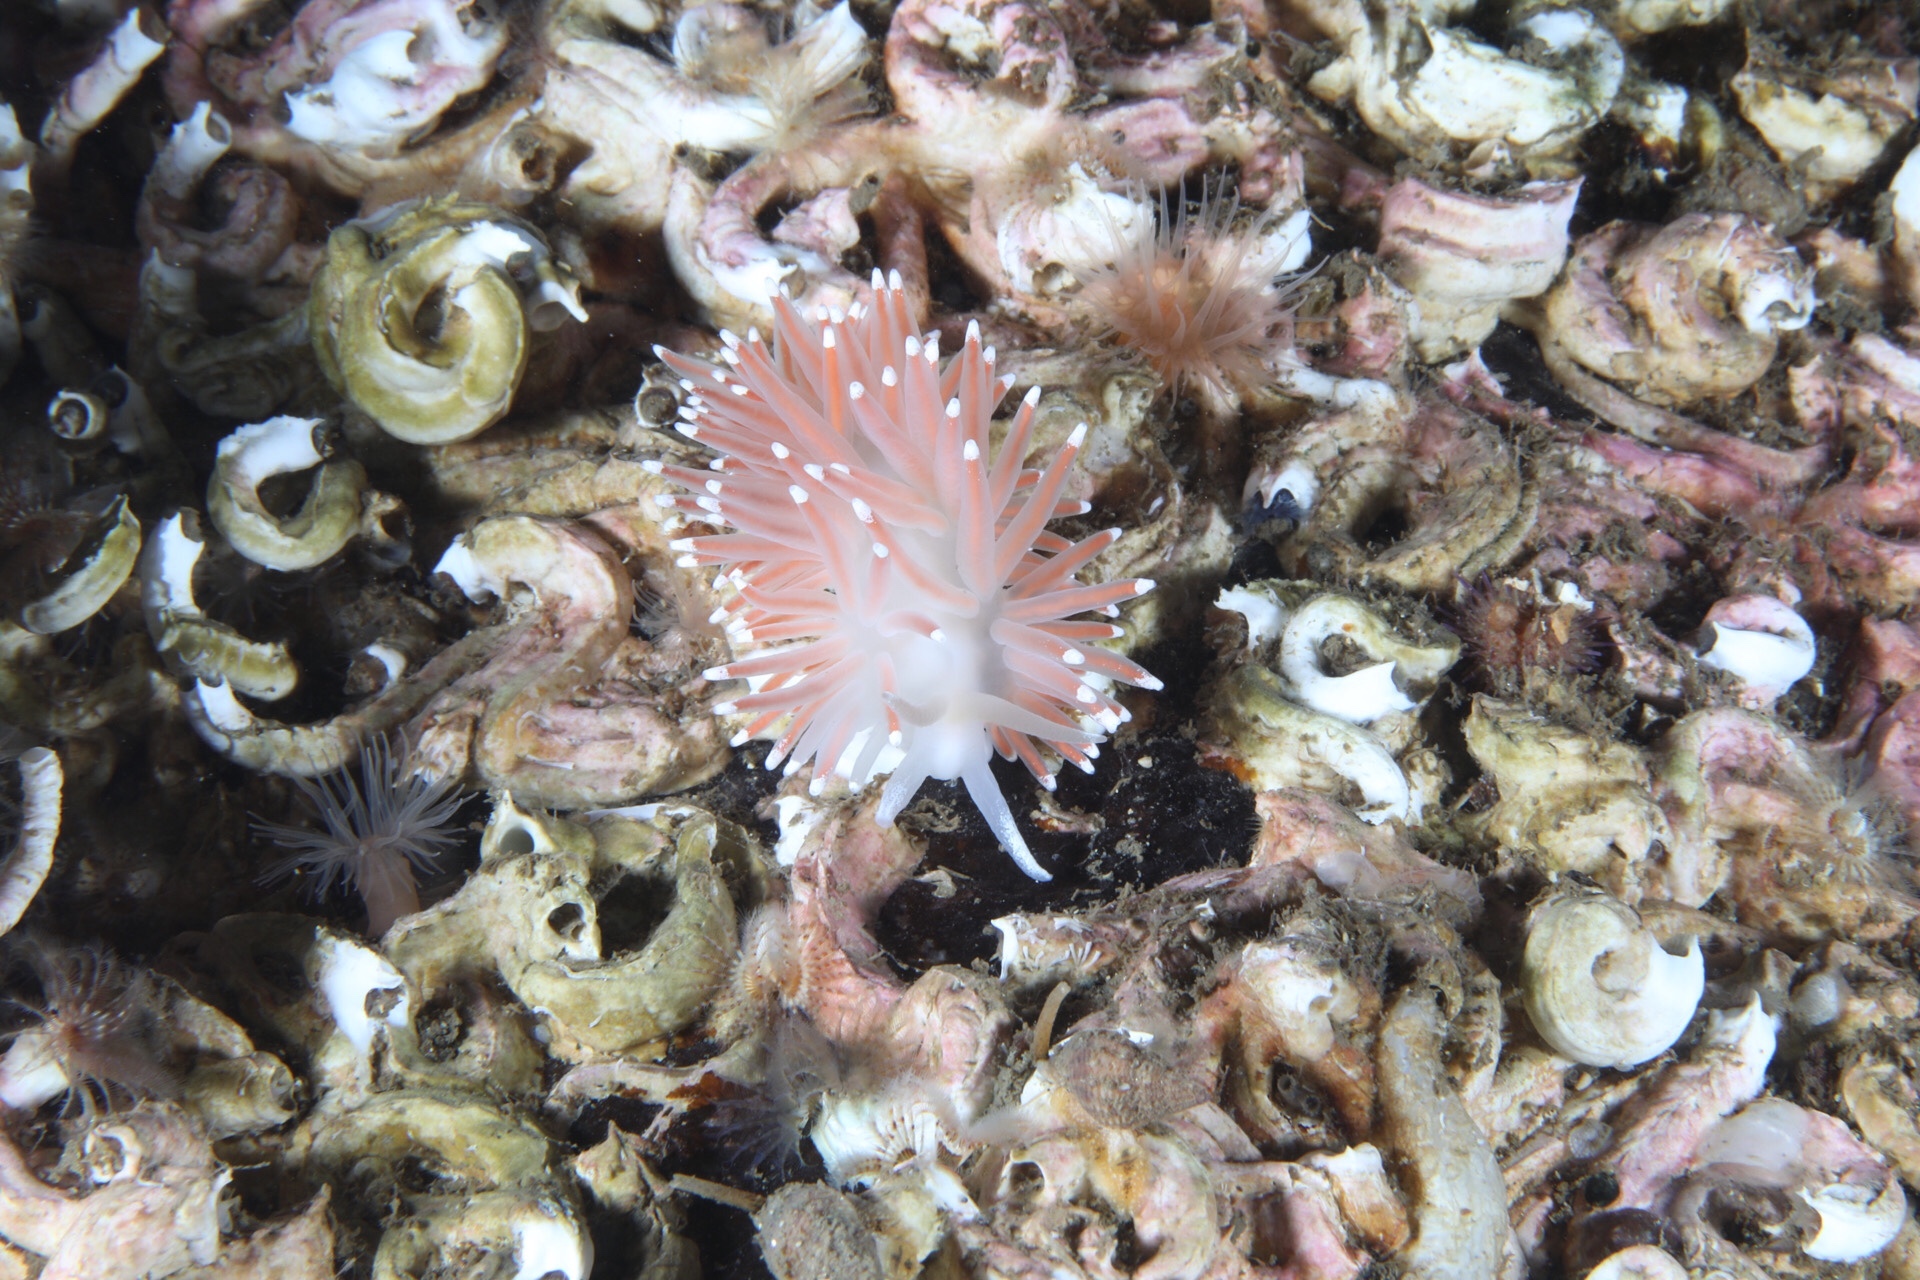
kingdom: Animalia
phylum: Mollusca
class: Gastropoda
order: Nudibranchia
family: Flabellinidae
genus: Carronella
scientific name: Carronella pellucida
